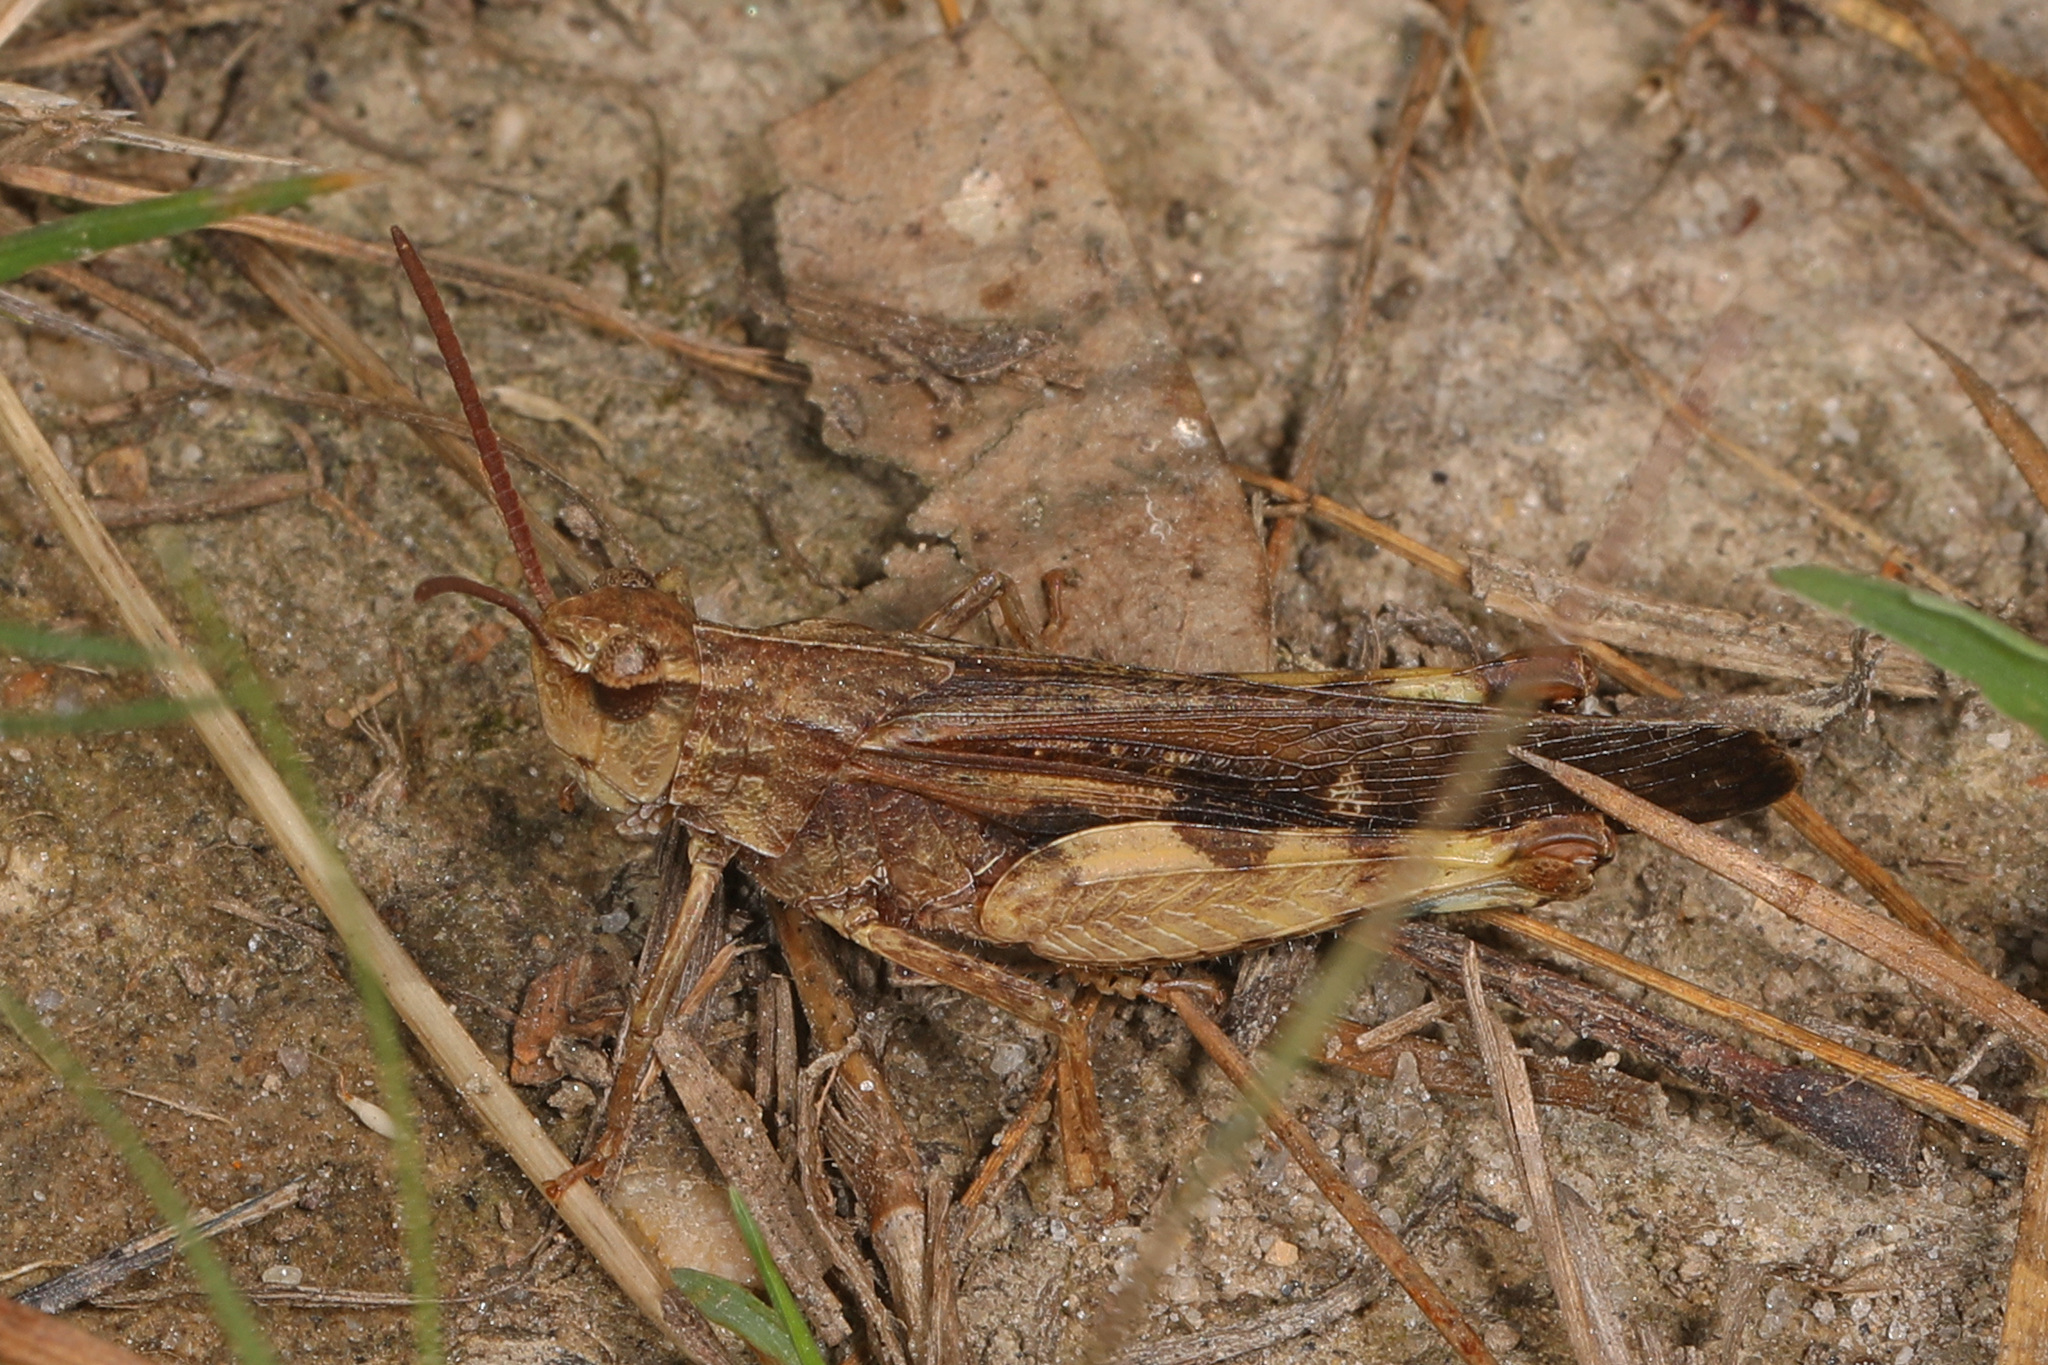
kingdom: Animalia
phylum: Arthropoda
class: Insecta
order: Orthoptera
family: Acrididae
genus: Chortophaga
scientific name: Chortophaga viridifasciata
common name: Green-striped grasshopper
